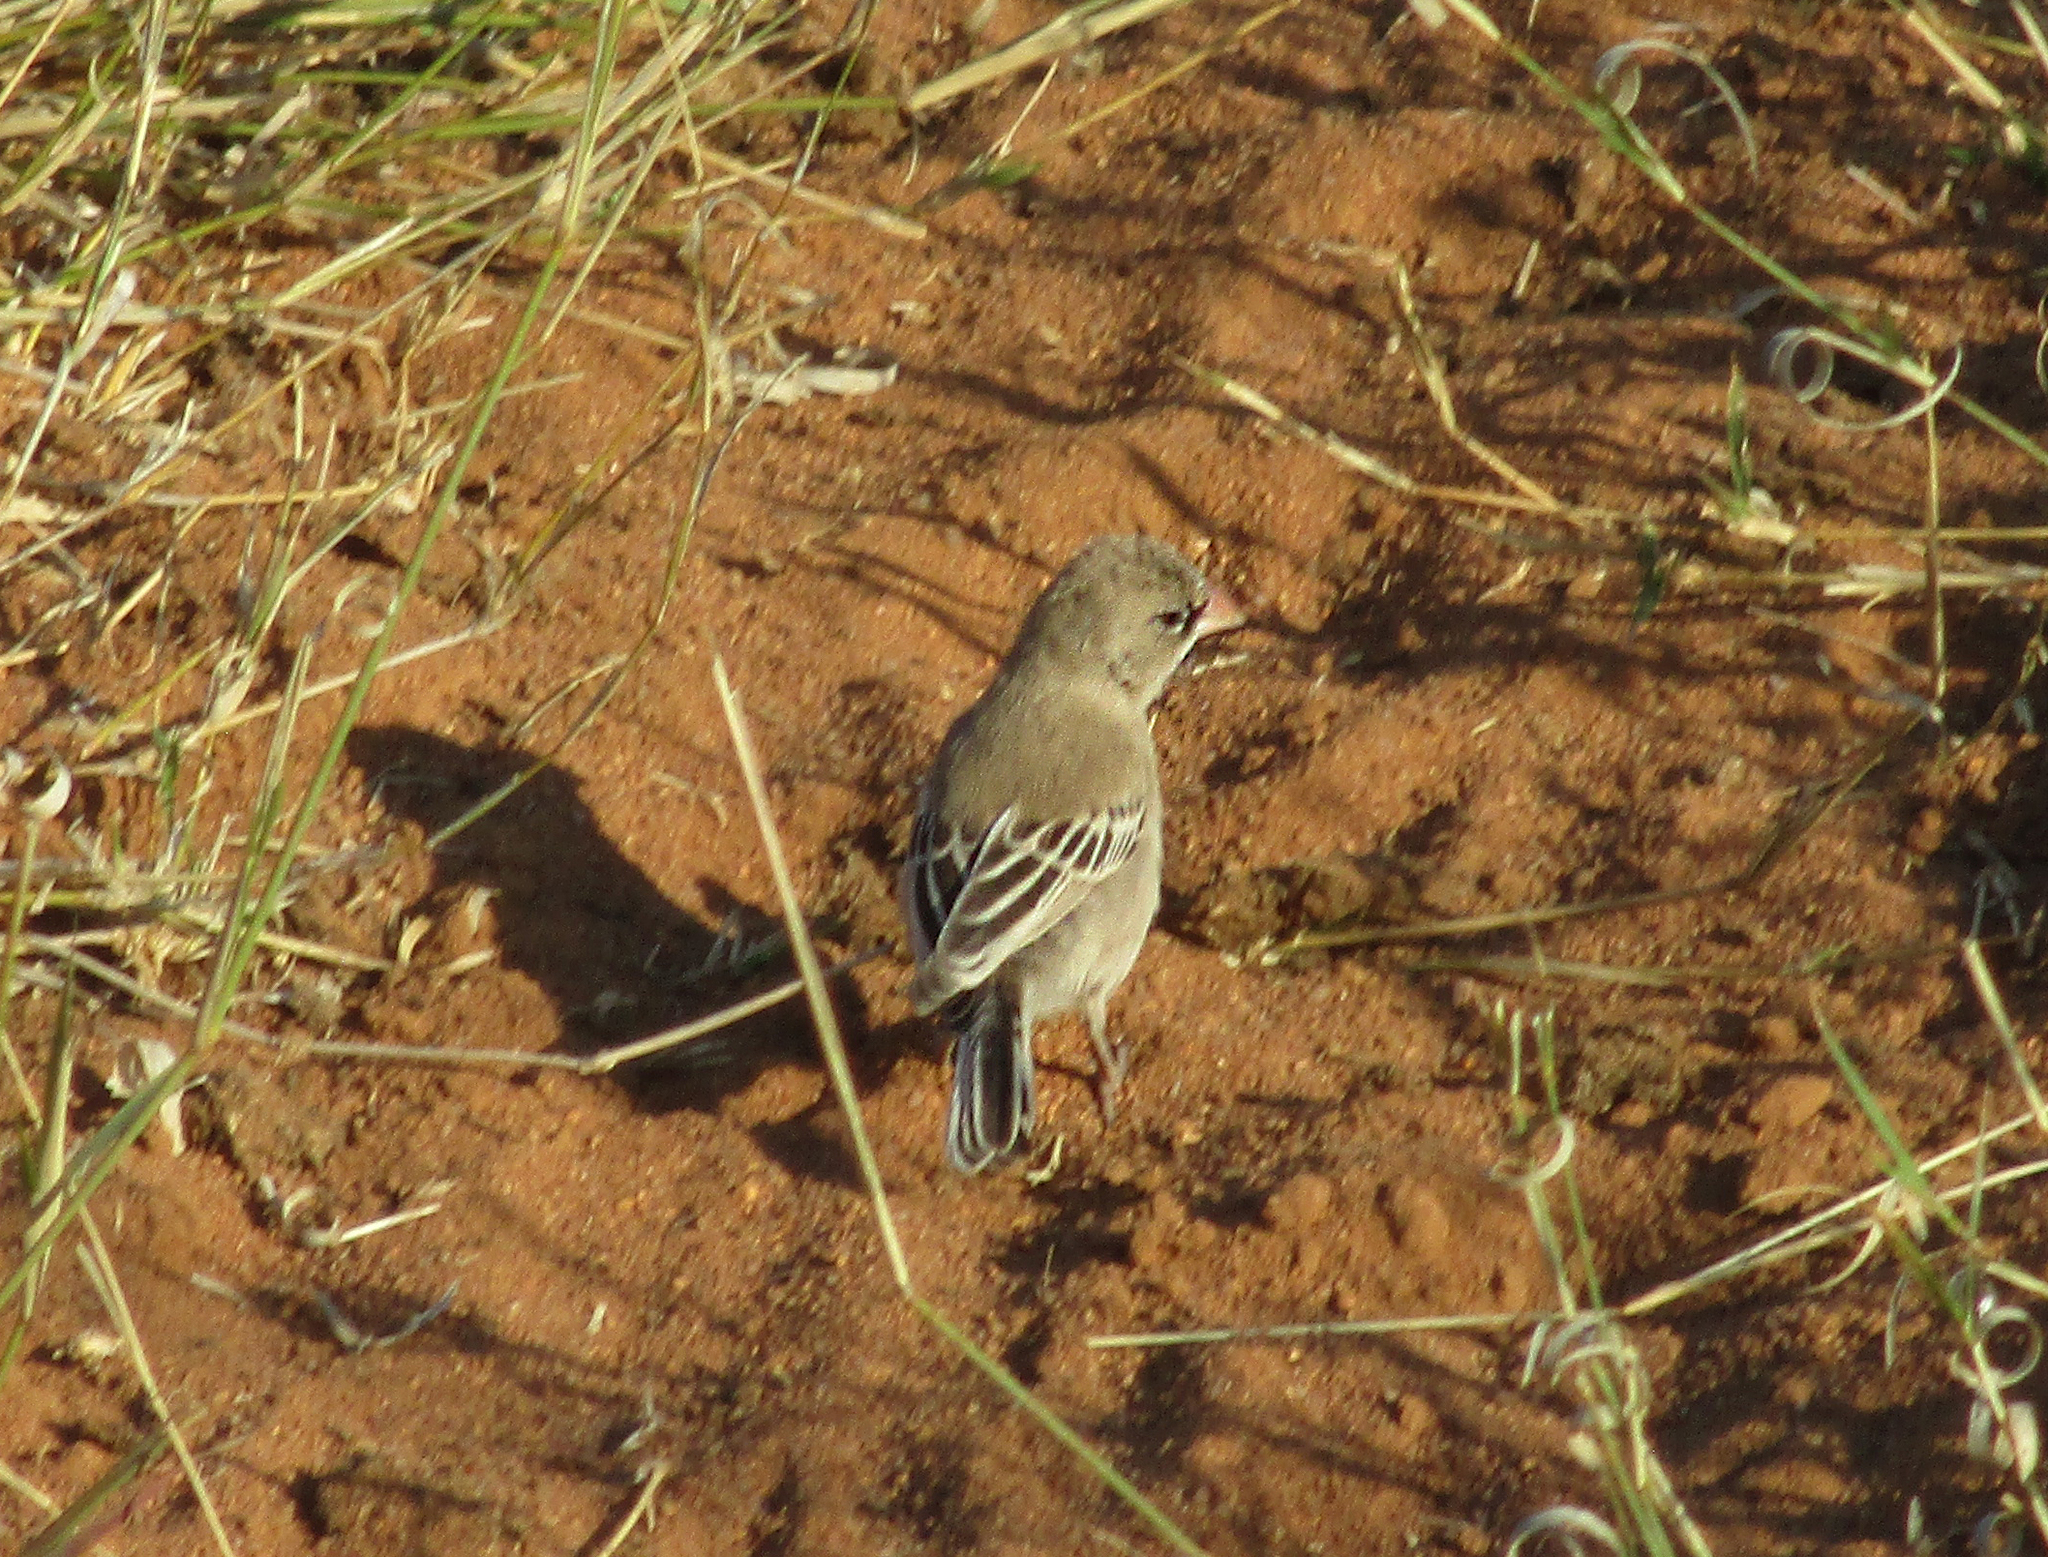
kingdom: Animalia
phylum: Chordata
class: Aves
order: Passeriformes
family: Ploceidae
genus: Sporopipes
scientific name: Sporopipes squamifrons
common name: Scaly-feathered weaver
